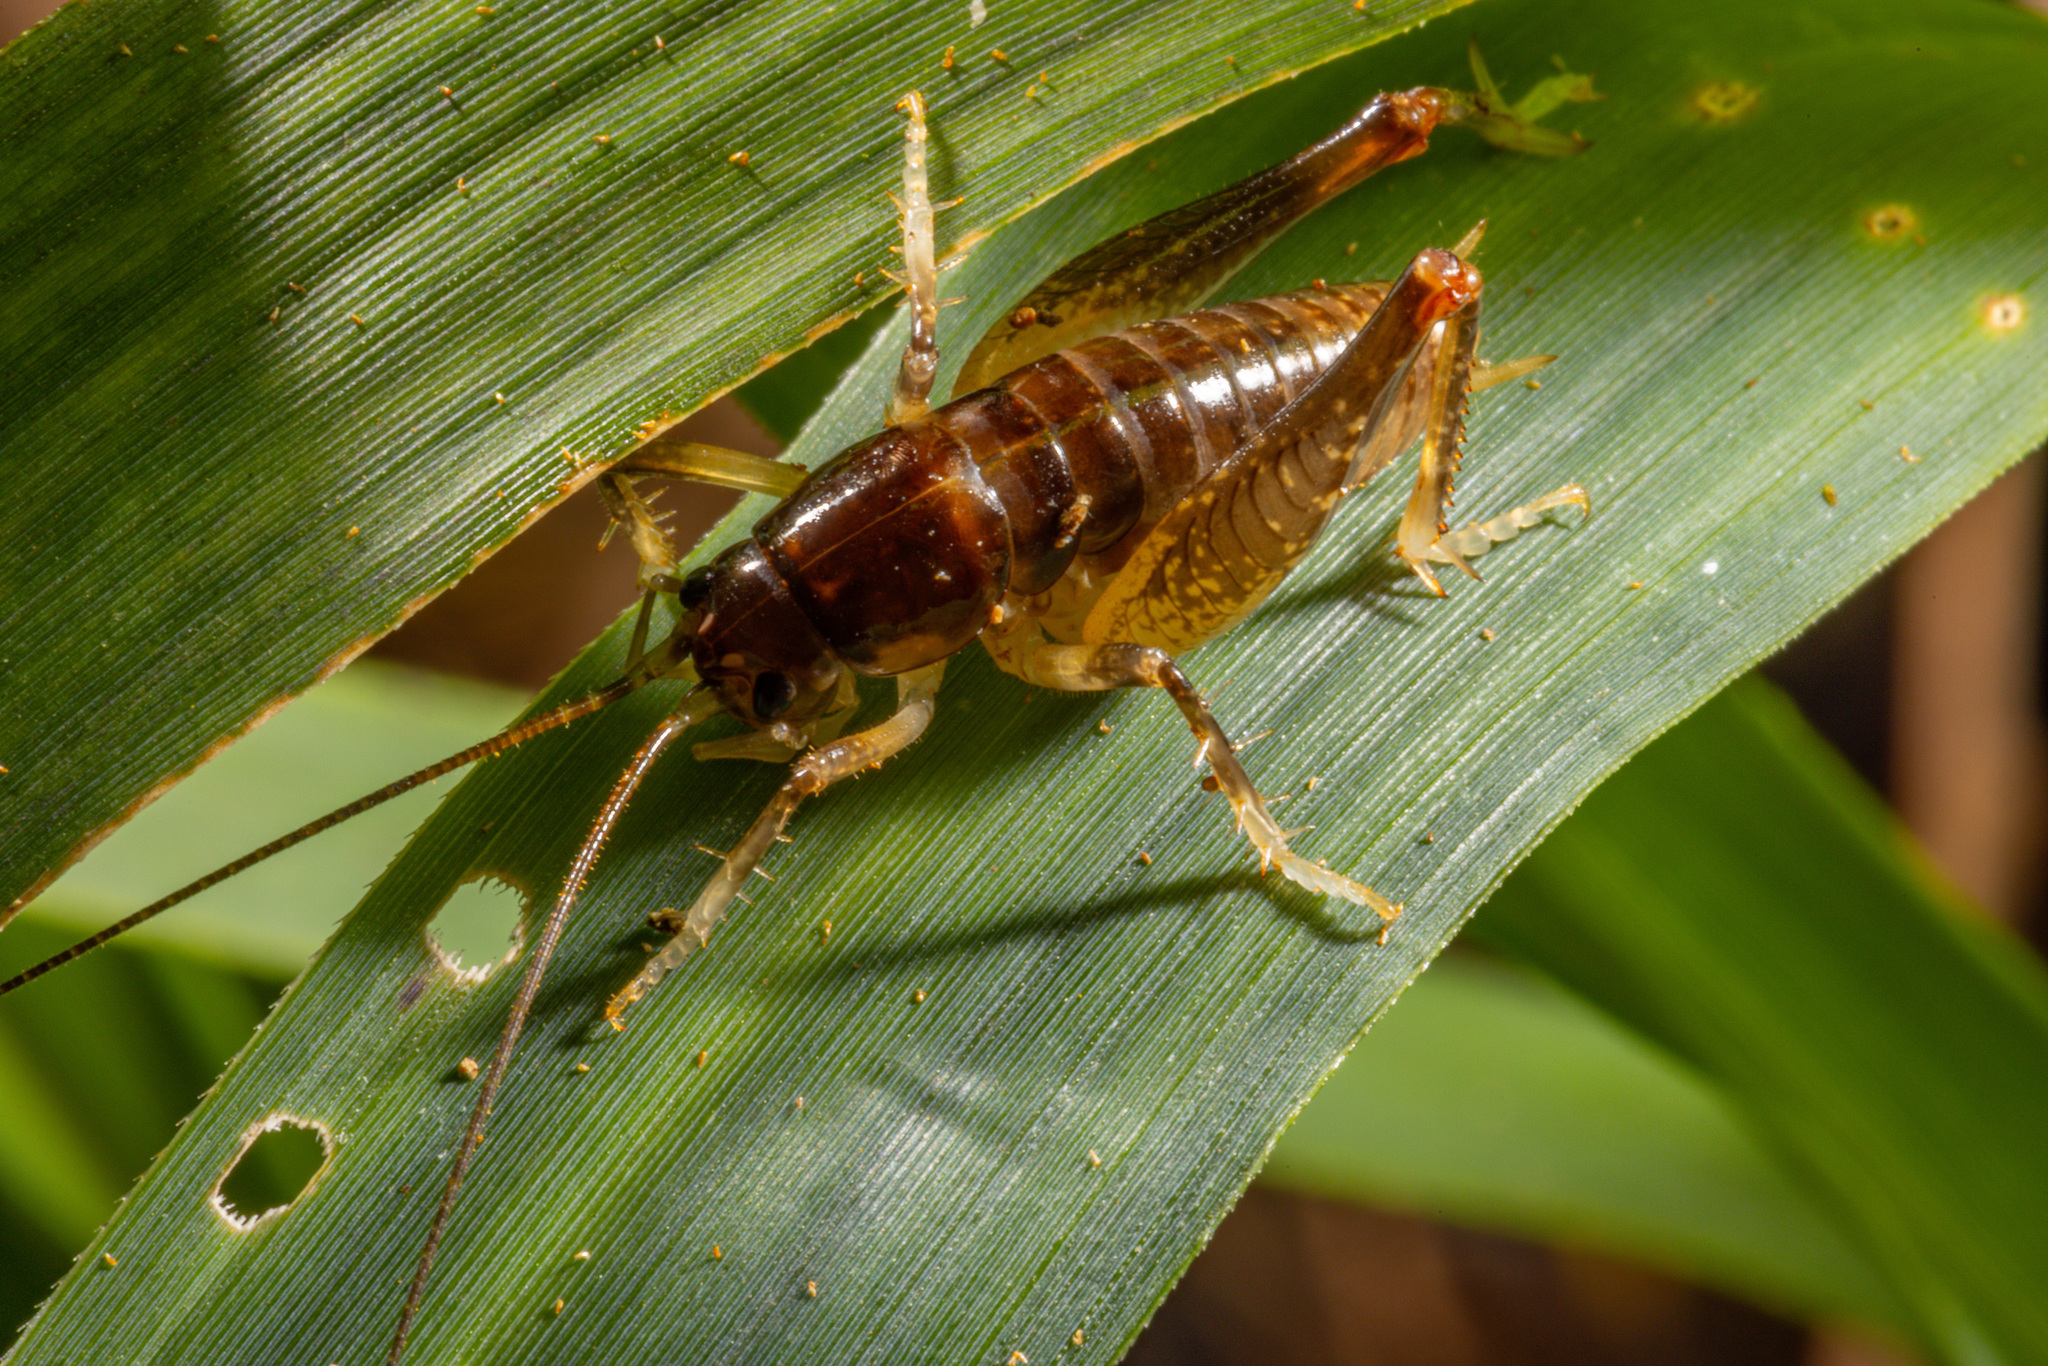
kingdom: Animalia
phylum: Arthropoda
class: Insecta
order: Orthoptera
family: Anostostomatidae
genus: Hemiandrus
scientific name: Hemiandrus brucei
